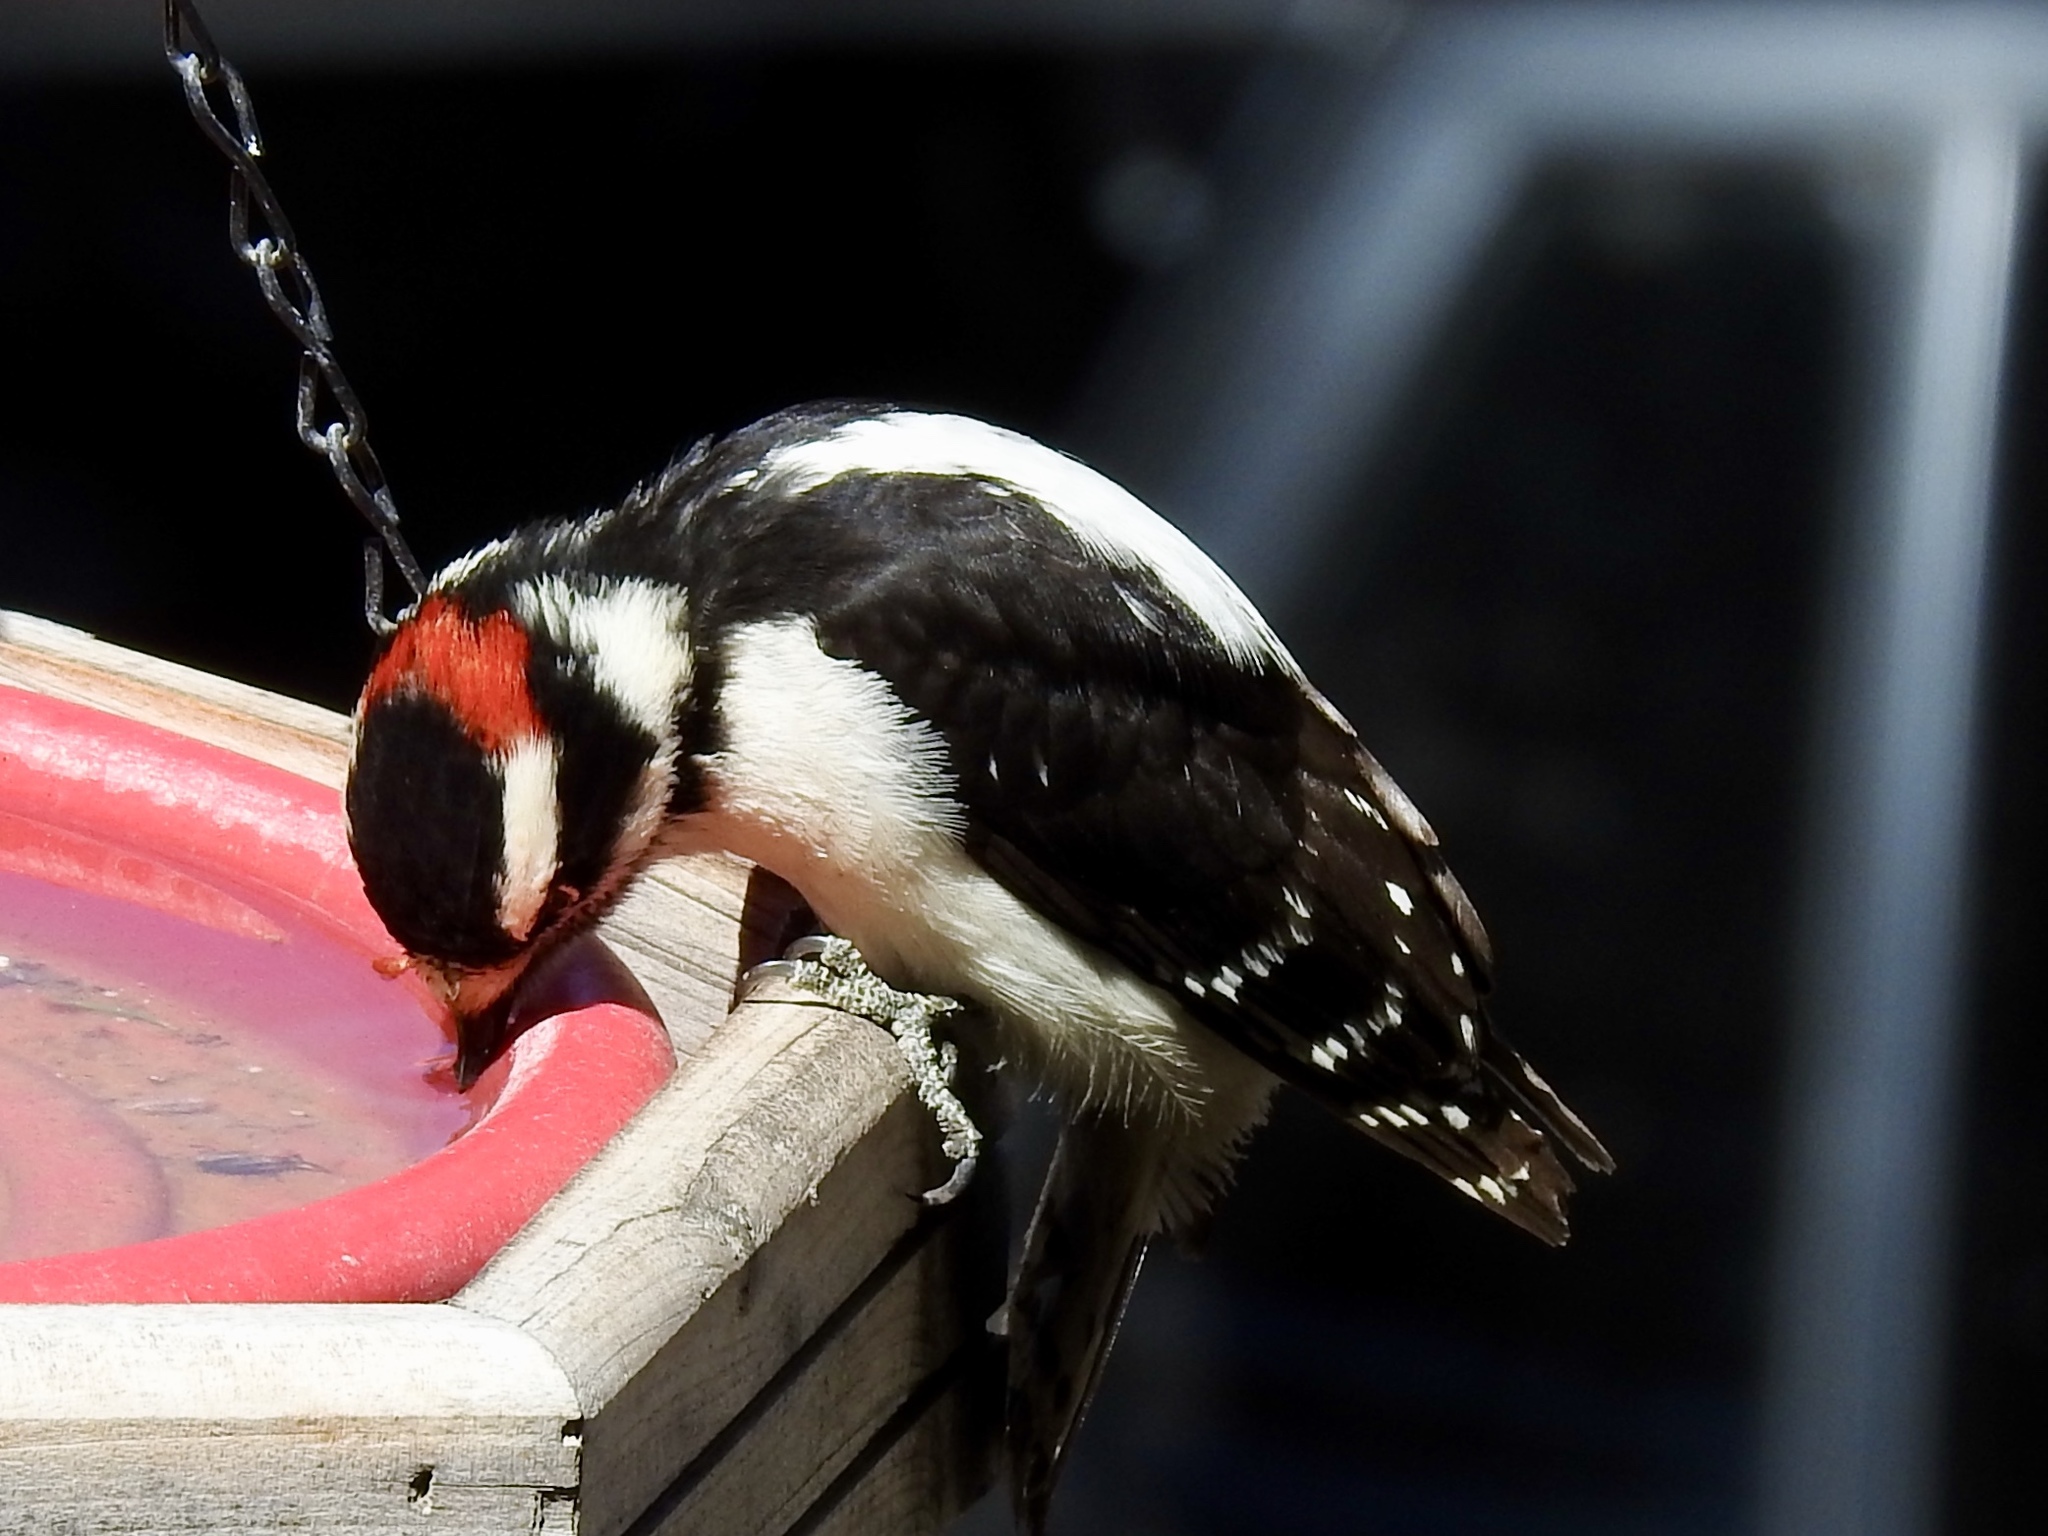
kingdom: Animalia
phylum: Chordata
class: Aves
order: Piciformes
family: Picidae
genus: Dryobates
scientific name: Dryobates pubescens
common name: Downy woodpecker
